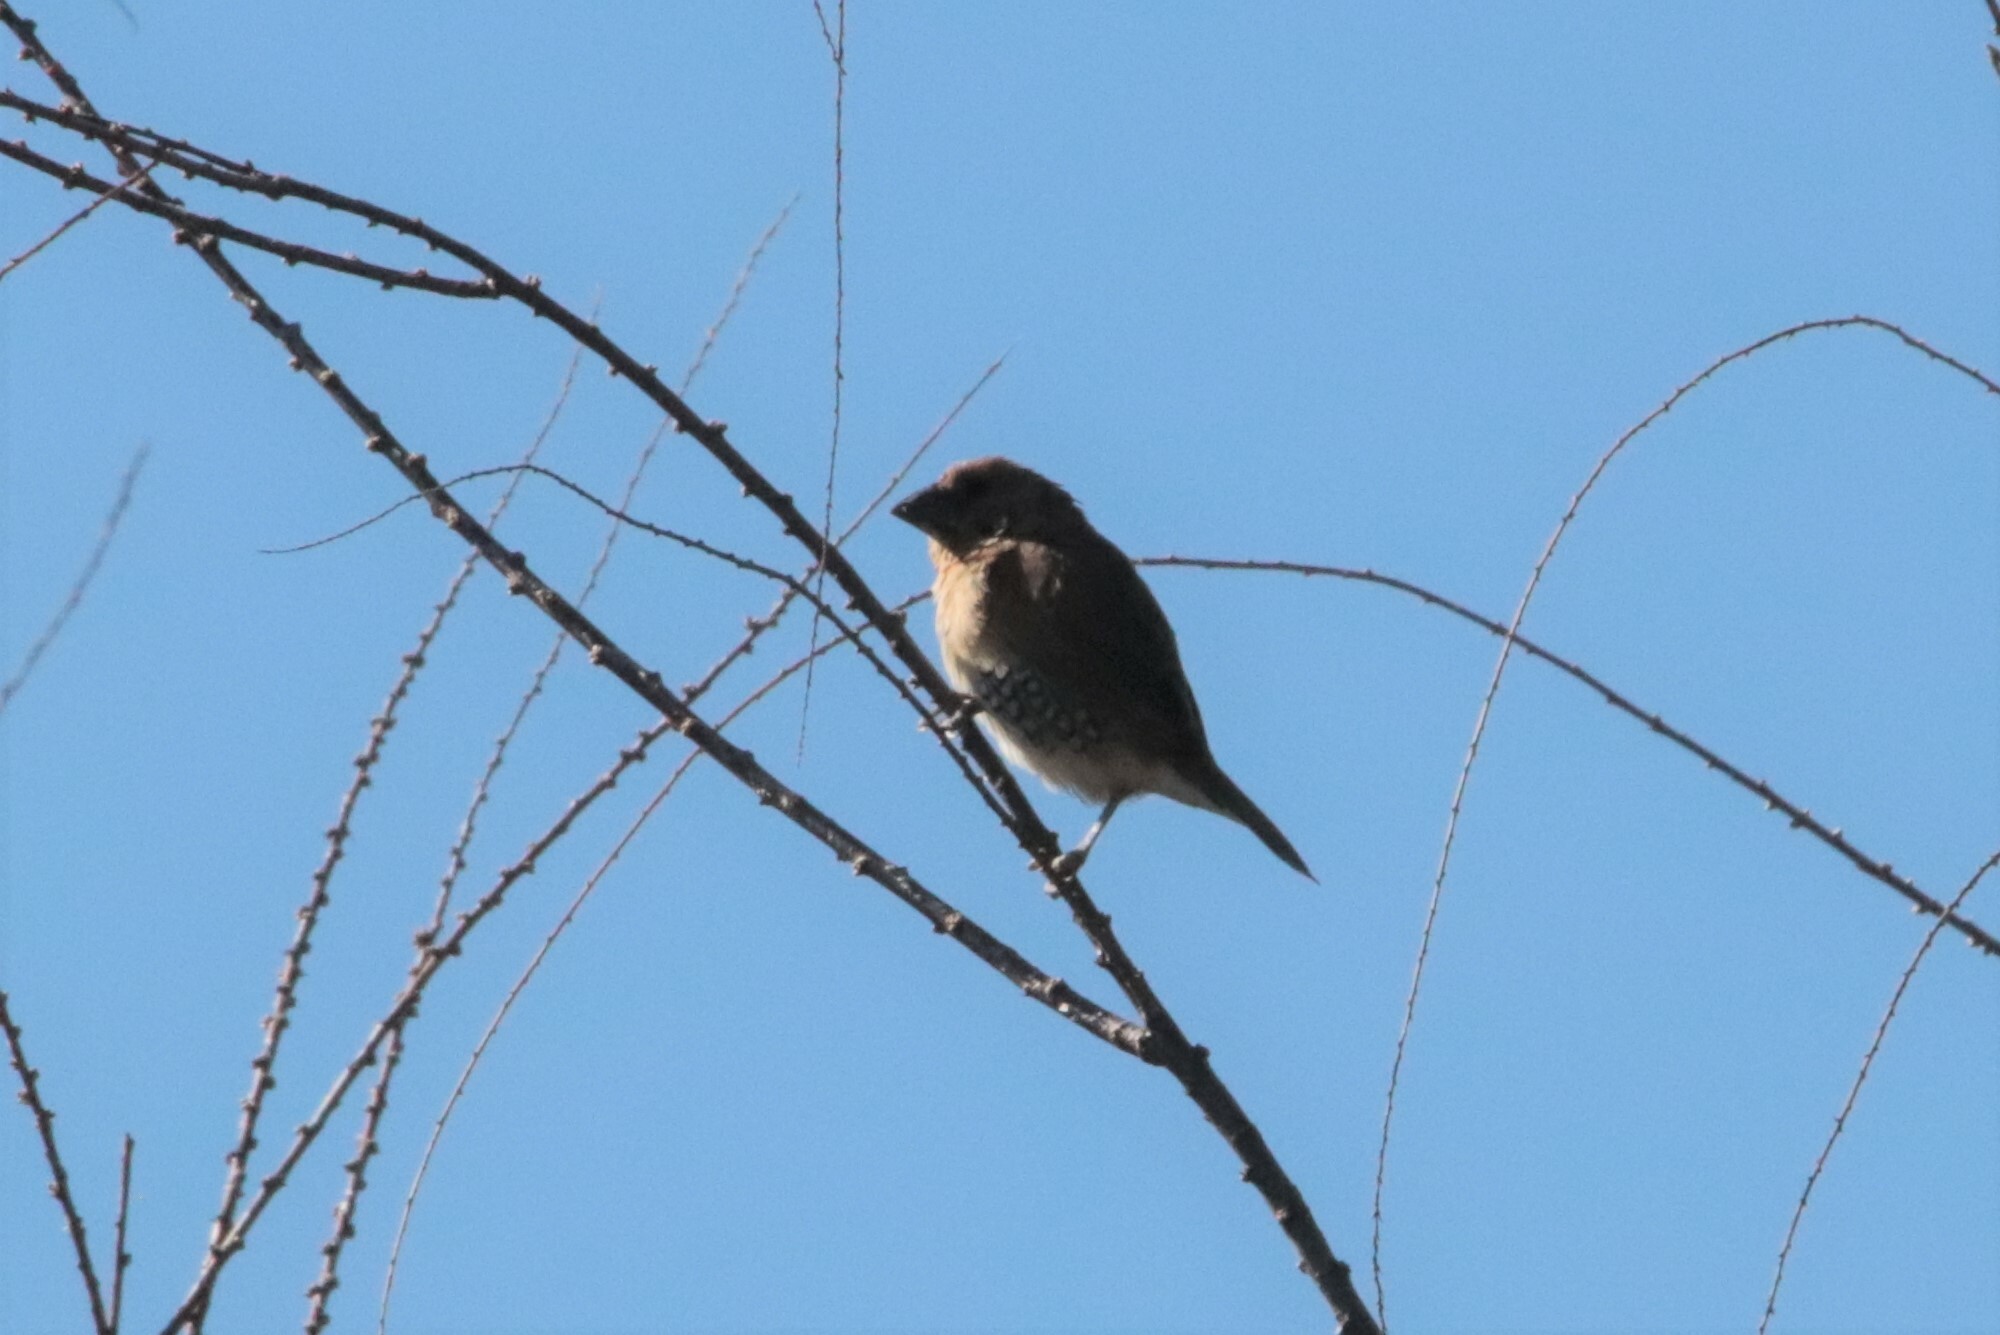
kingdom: Animalia
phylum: Chordata
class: Aves
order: Passeriformes
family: Estrildidae
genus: Lonchura
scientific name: Lonchura punctulata
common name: Scaly-breasted munia
